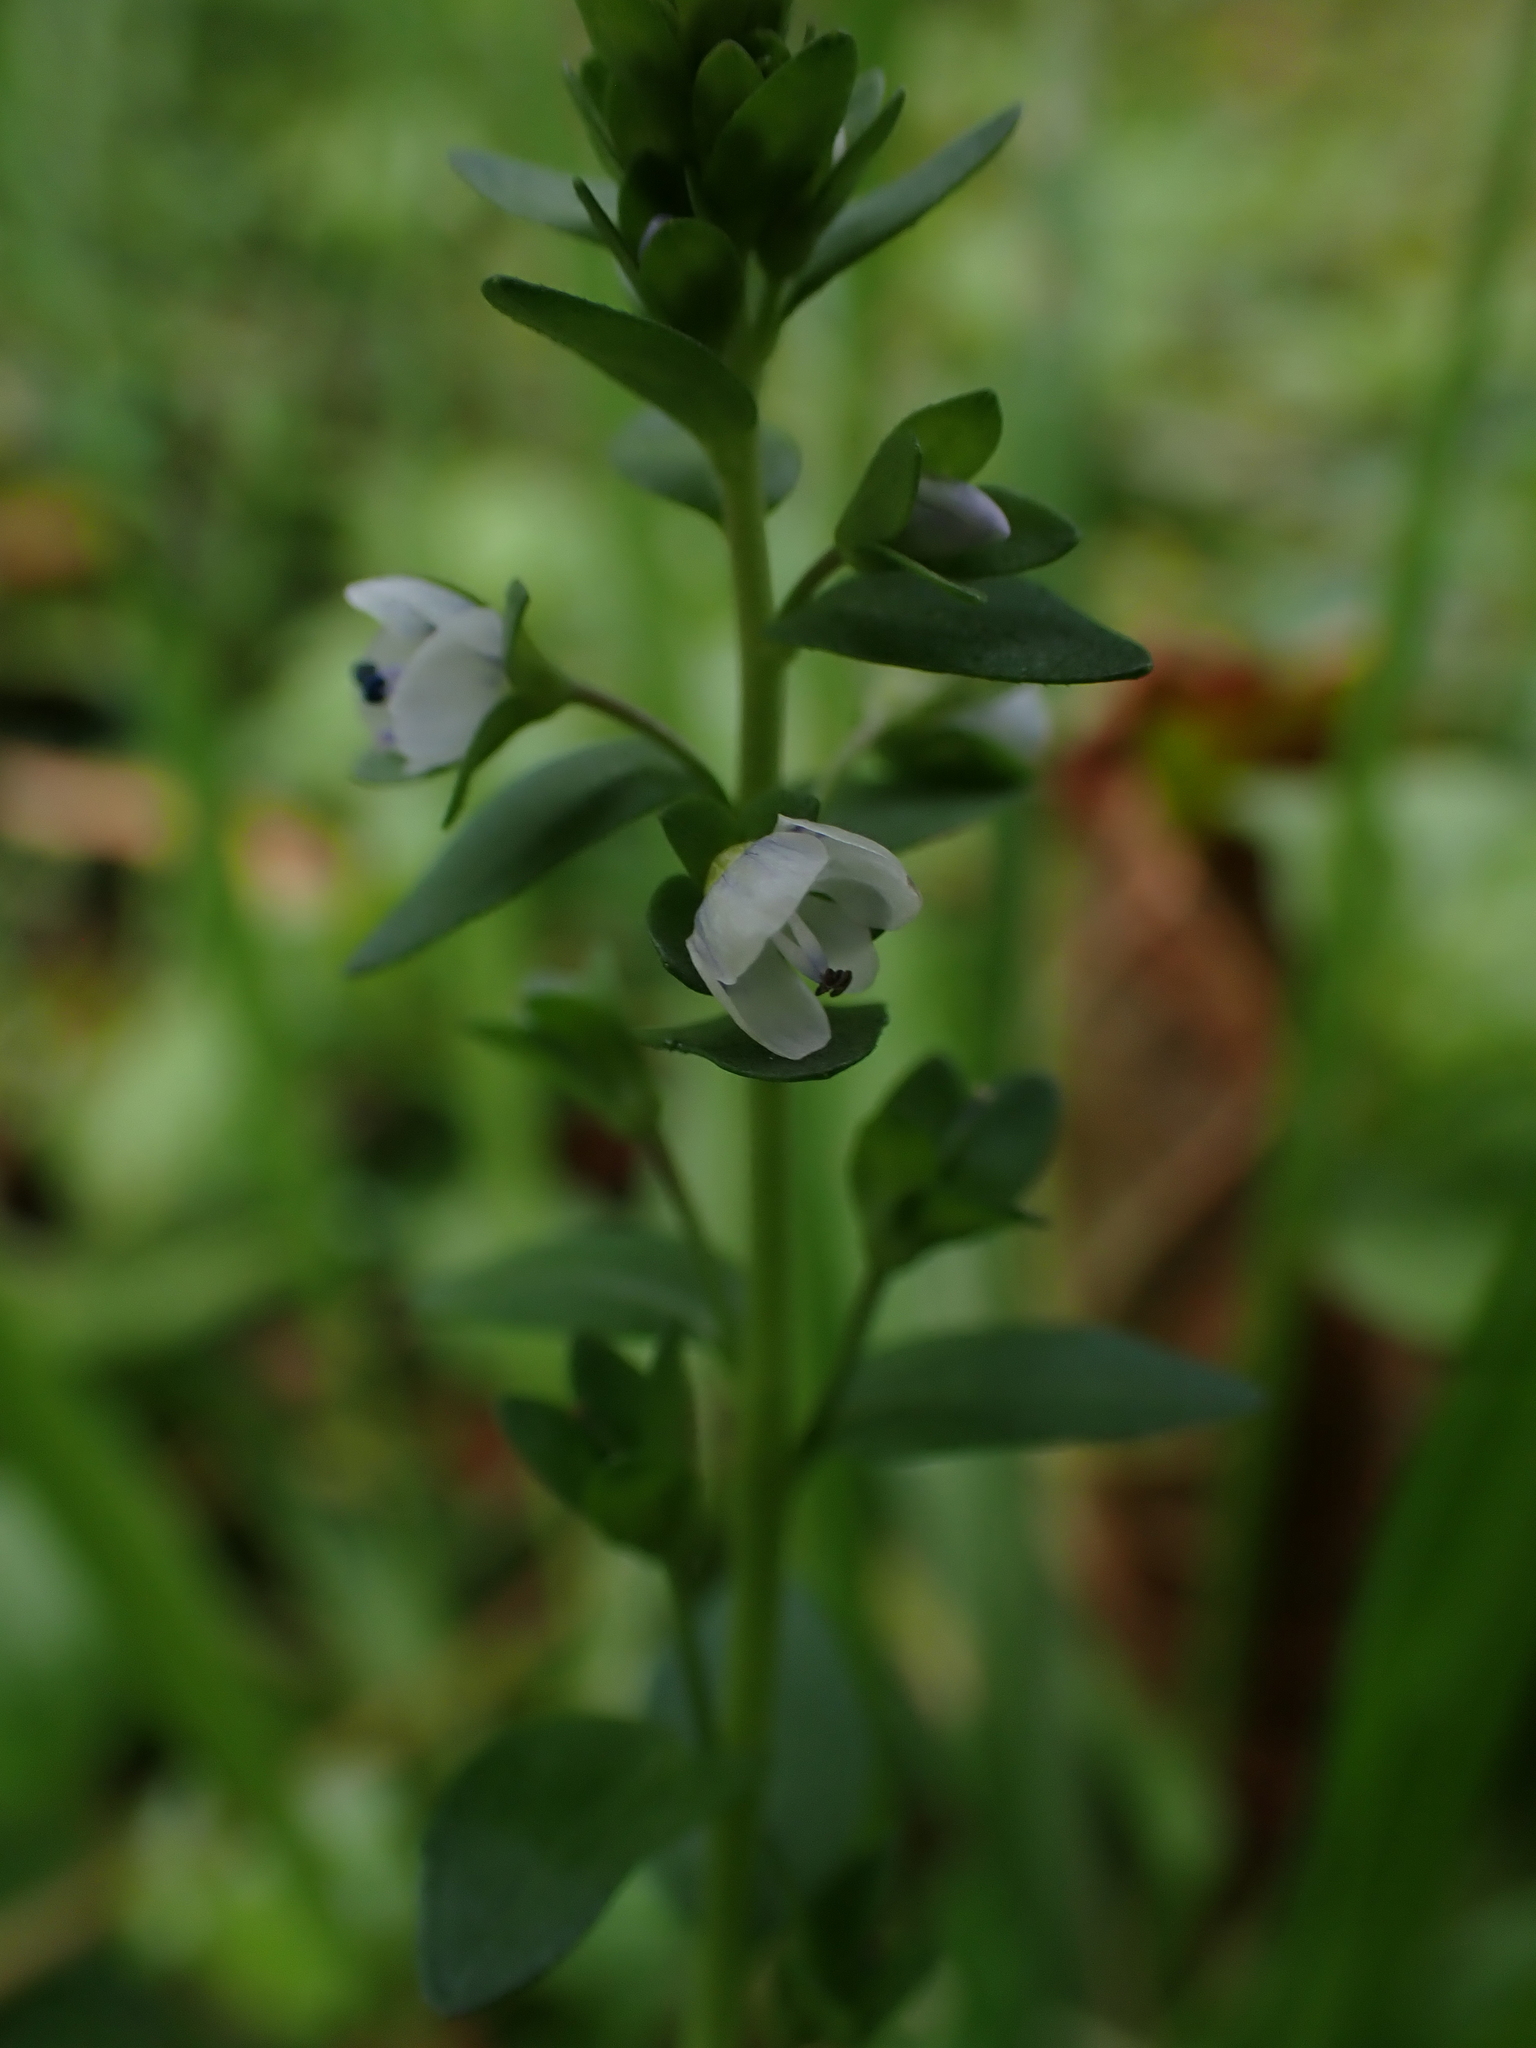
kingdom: Plantae
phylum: Tracheophyta
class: Magnoliopsida
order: Lamiales
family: Plantaginaceae
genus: Veronica
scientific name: Veronica serpyllifolia
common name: Thyme-leaved speedwell
